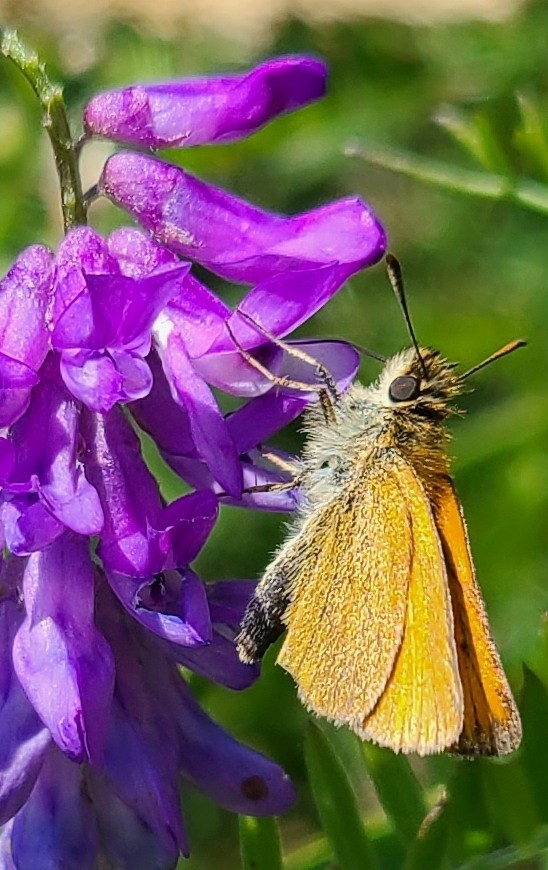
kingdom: Animalia
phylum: Arthropoda
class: Insecta
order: Lepidoptera
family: Hesperiidae
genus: Thymelicus
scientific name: Thymelicus lineola
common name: Essex skipper
